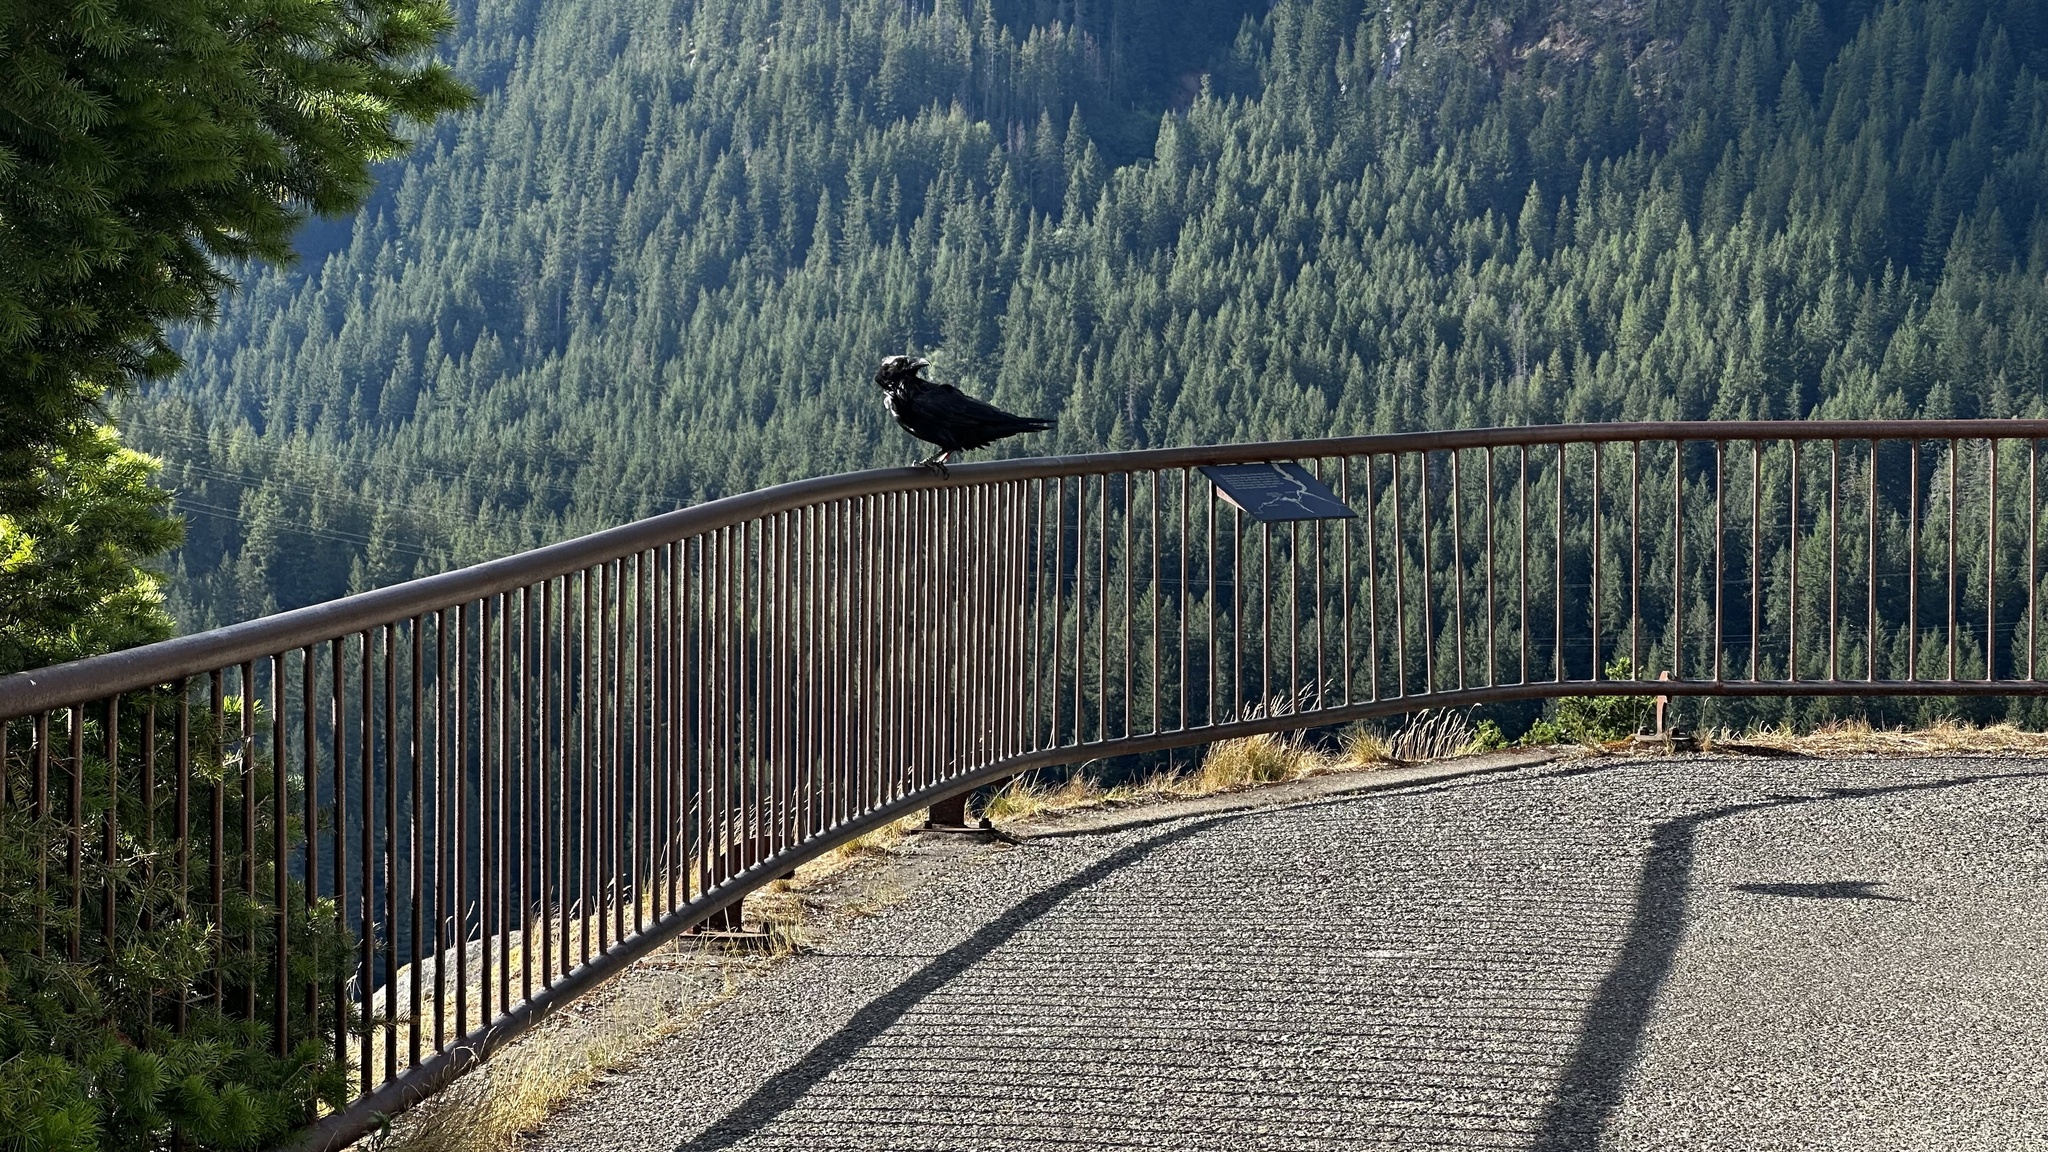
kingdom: Animalia
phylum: Chordata
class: Aves
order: Passeriformes
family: Corvidae
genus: Corvus
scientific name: Corvus corax
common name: Common raven
